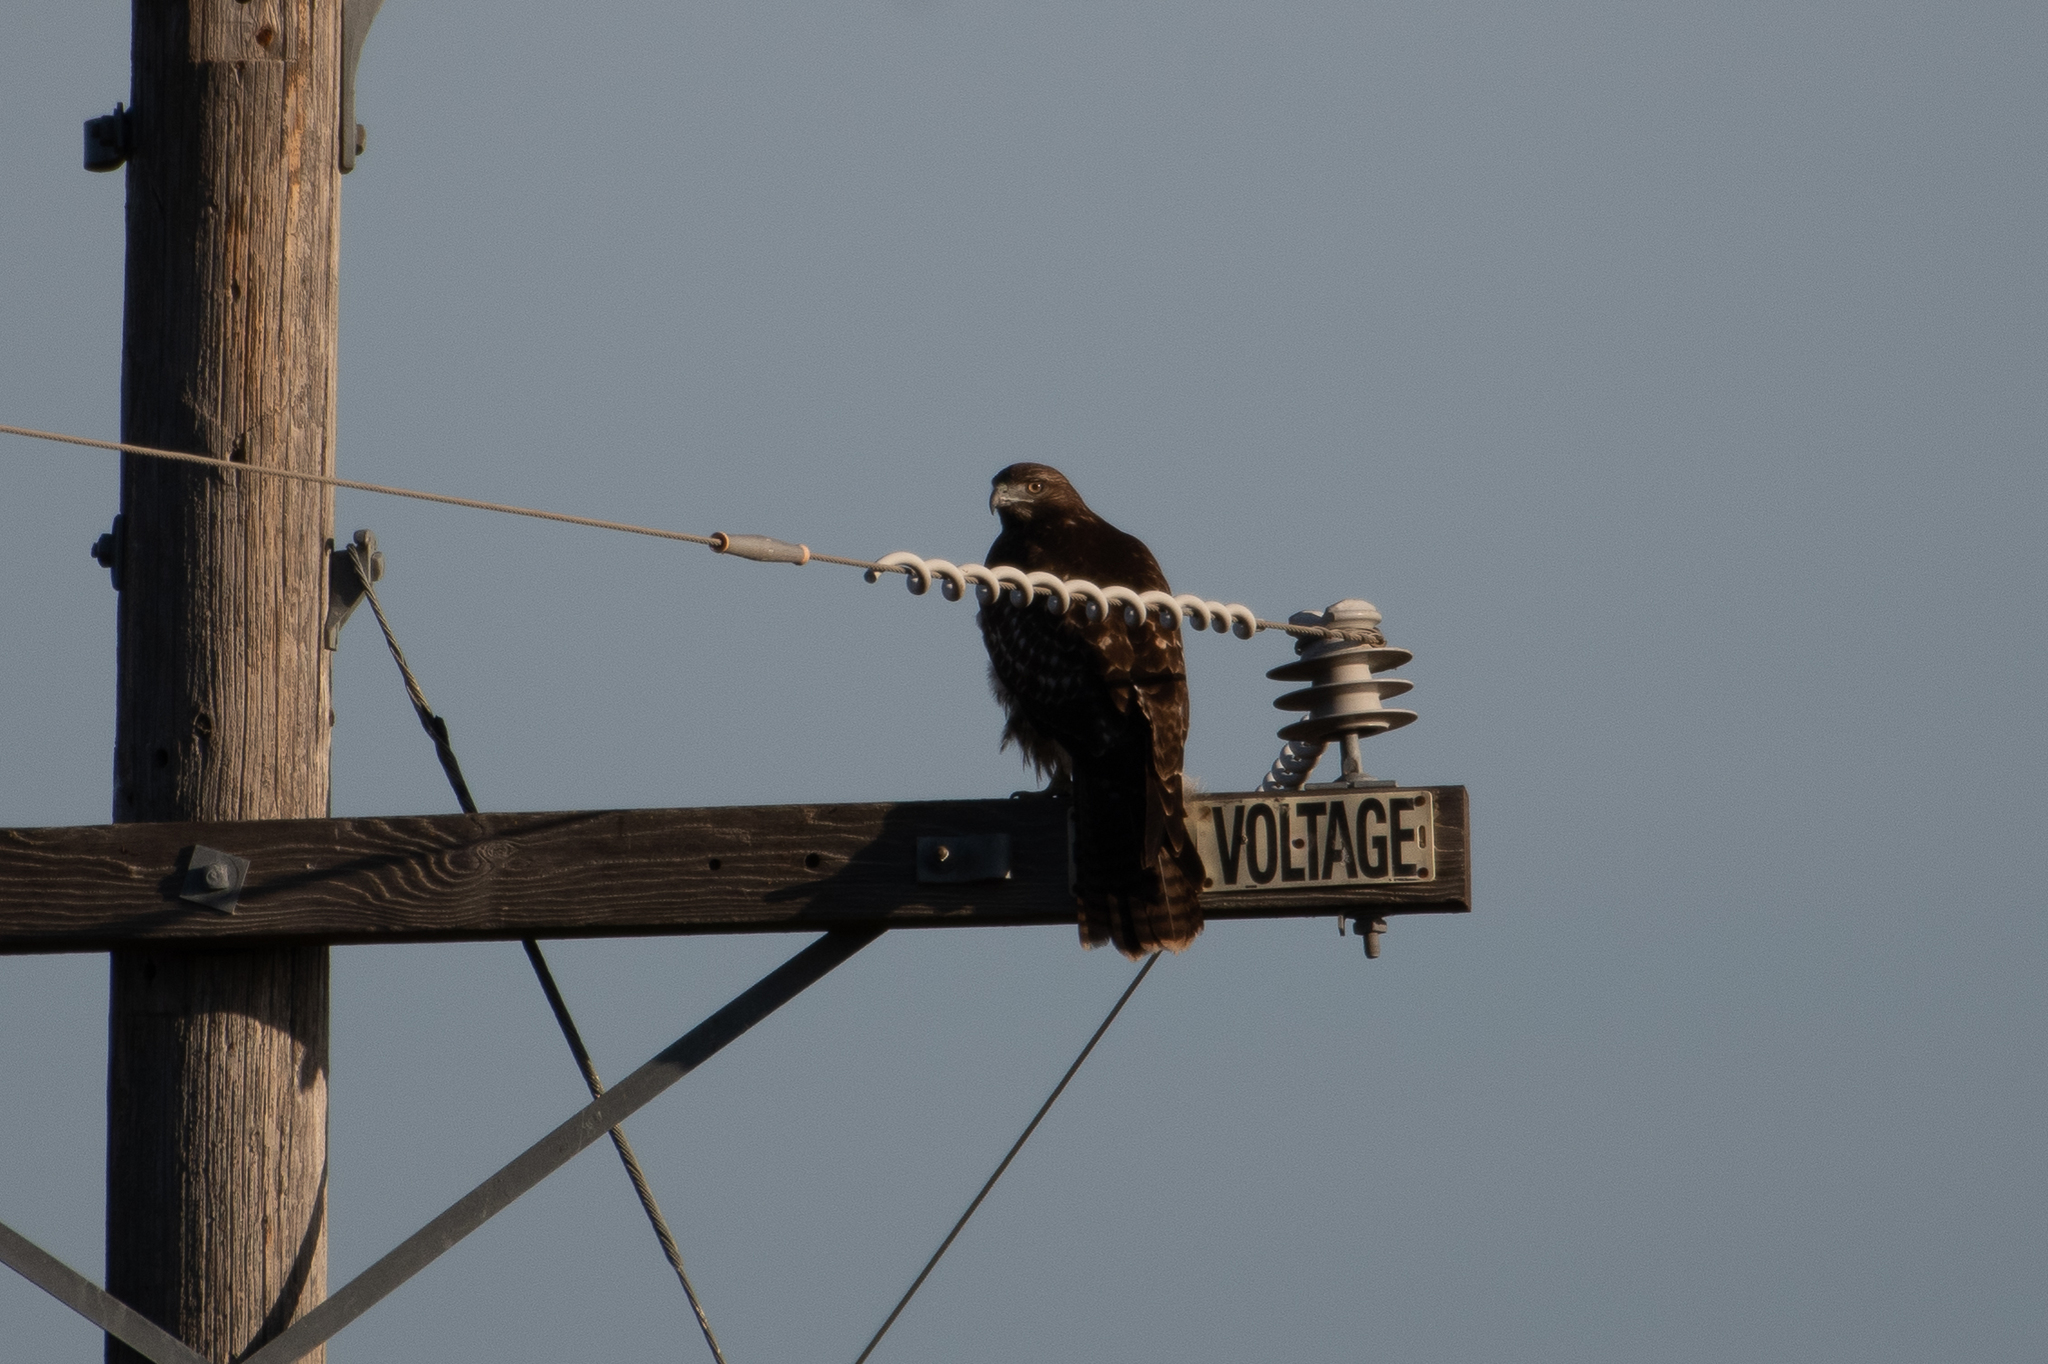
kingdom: Animalia
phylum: Chordata
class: Aves
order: Accipitriformes
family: Accipitridae
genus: Buteo
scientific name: Buteo jamaicensis
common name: Red-tailed hawk
